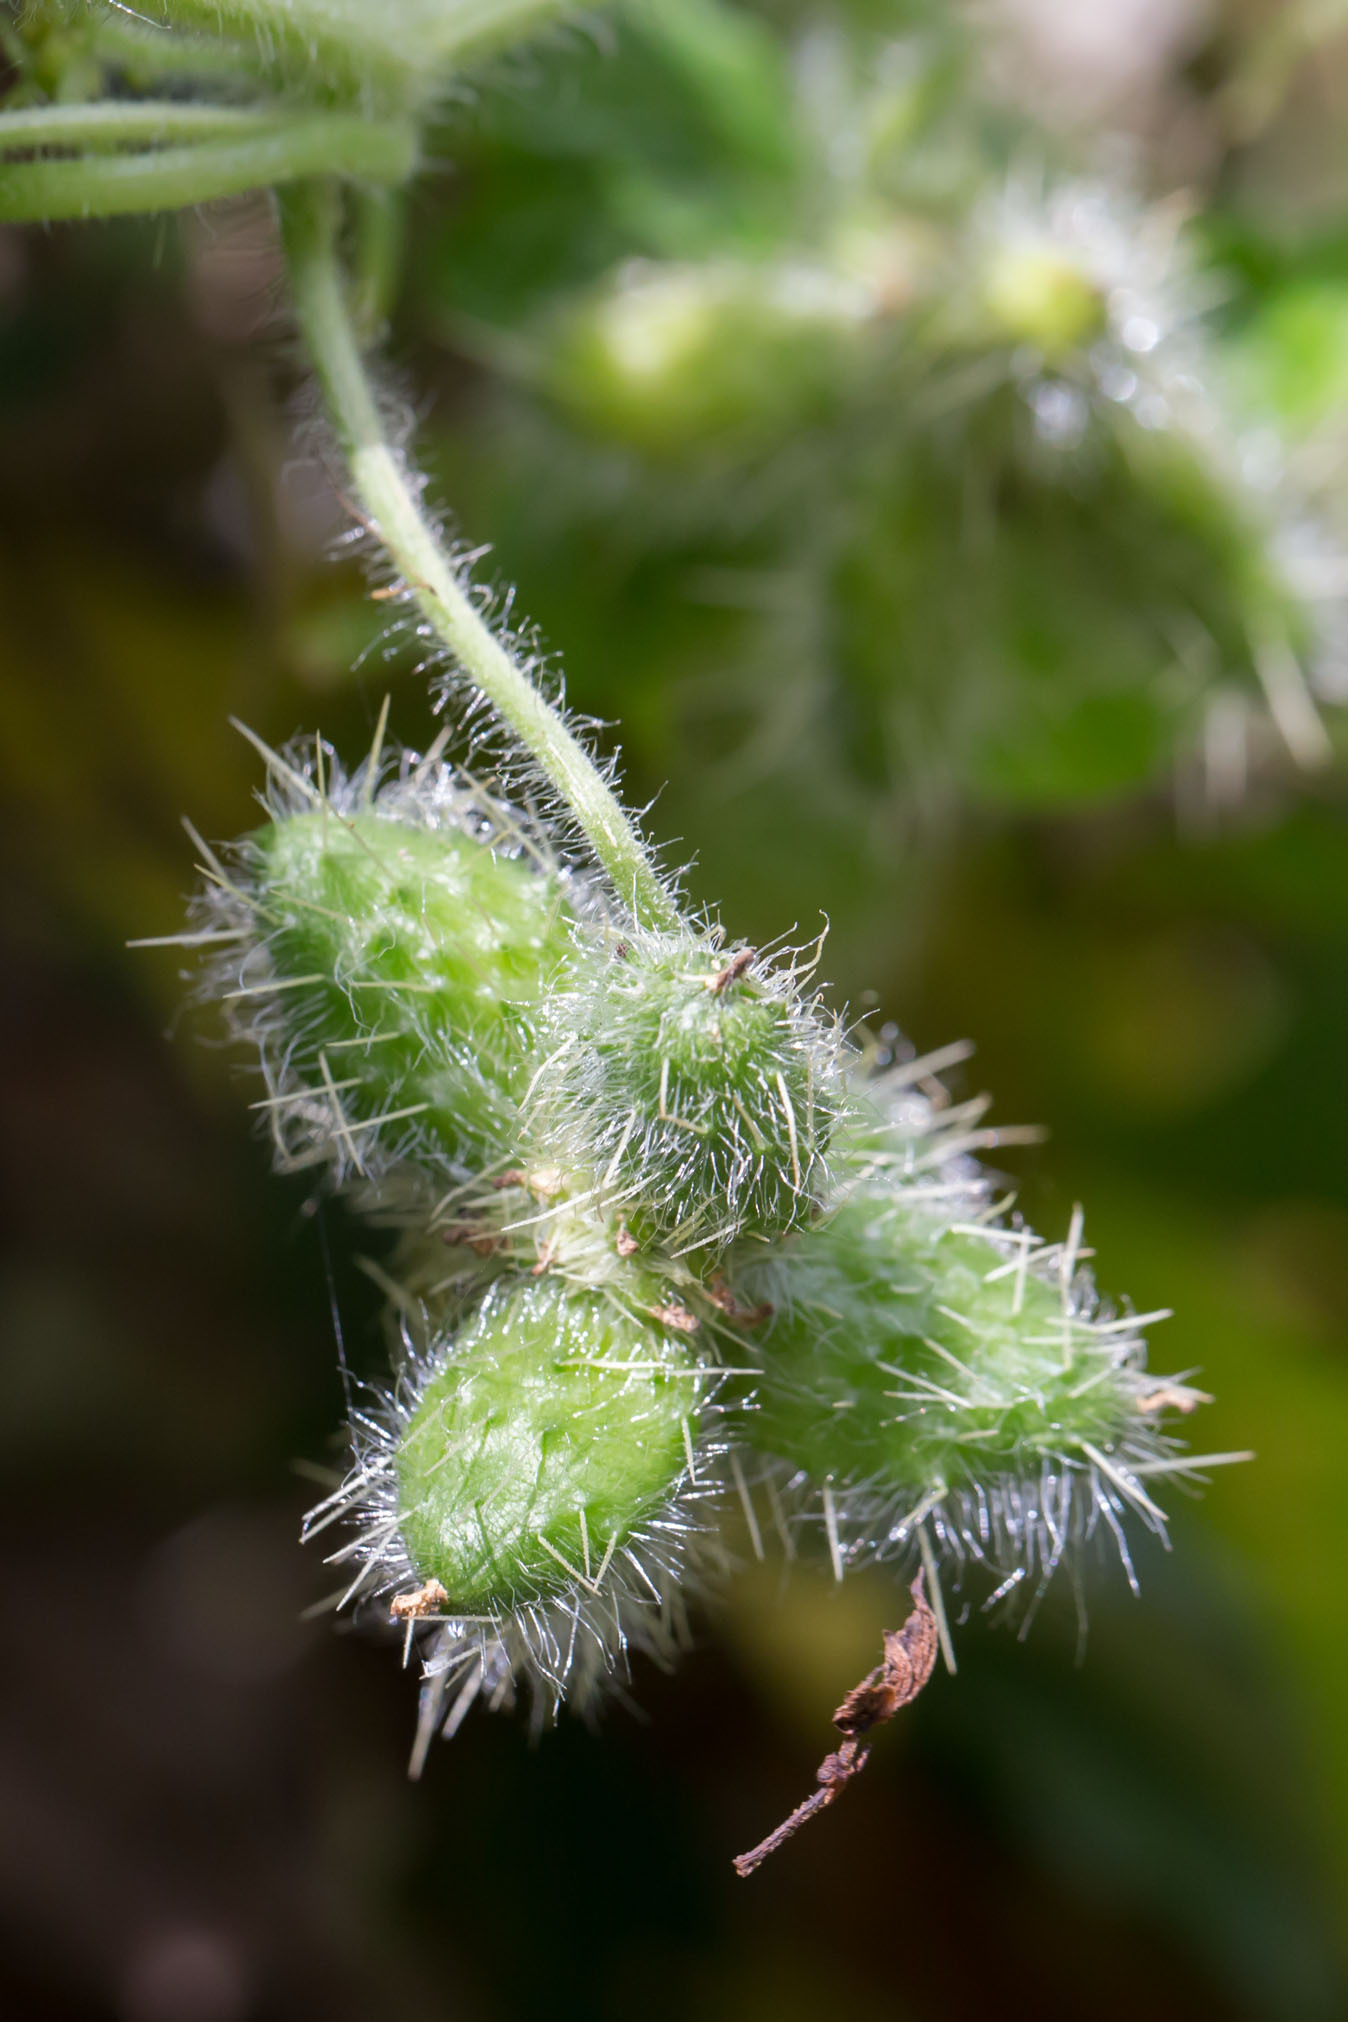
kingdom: Plantae
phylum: Tracheophyta
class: Magnoliopsida
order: Cucurbitales
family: Cucurbitaceae
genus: Sicyos
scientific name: Sicyos angulatus
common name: Angled burr cucumber
